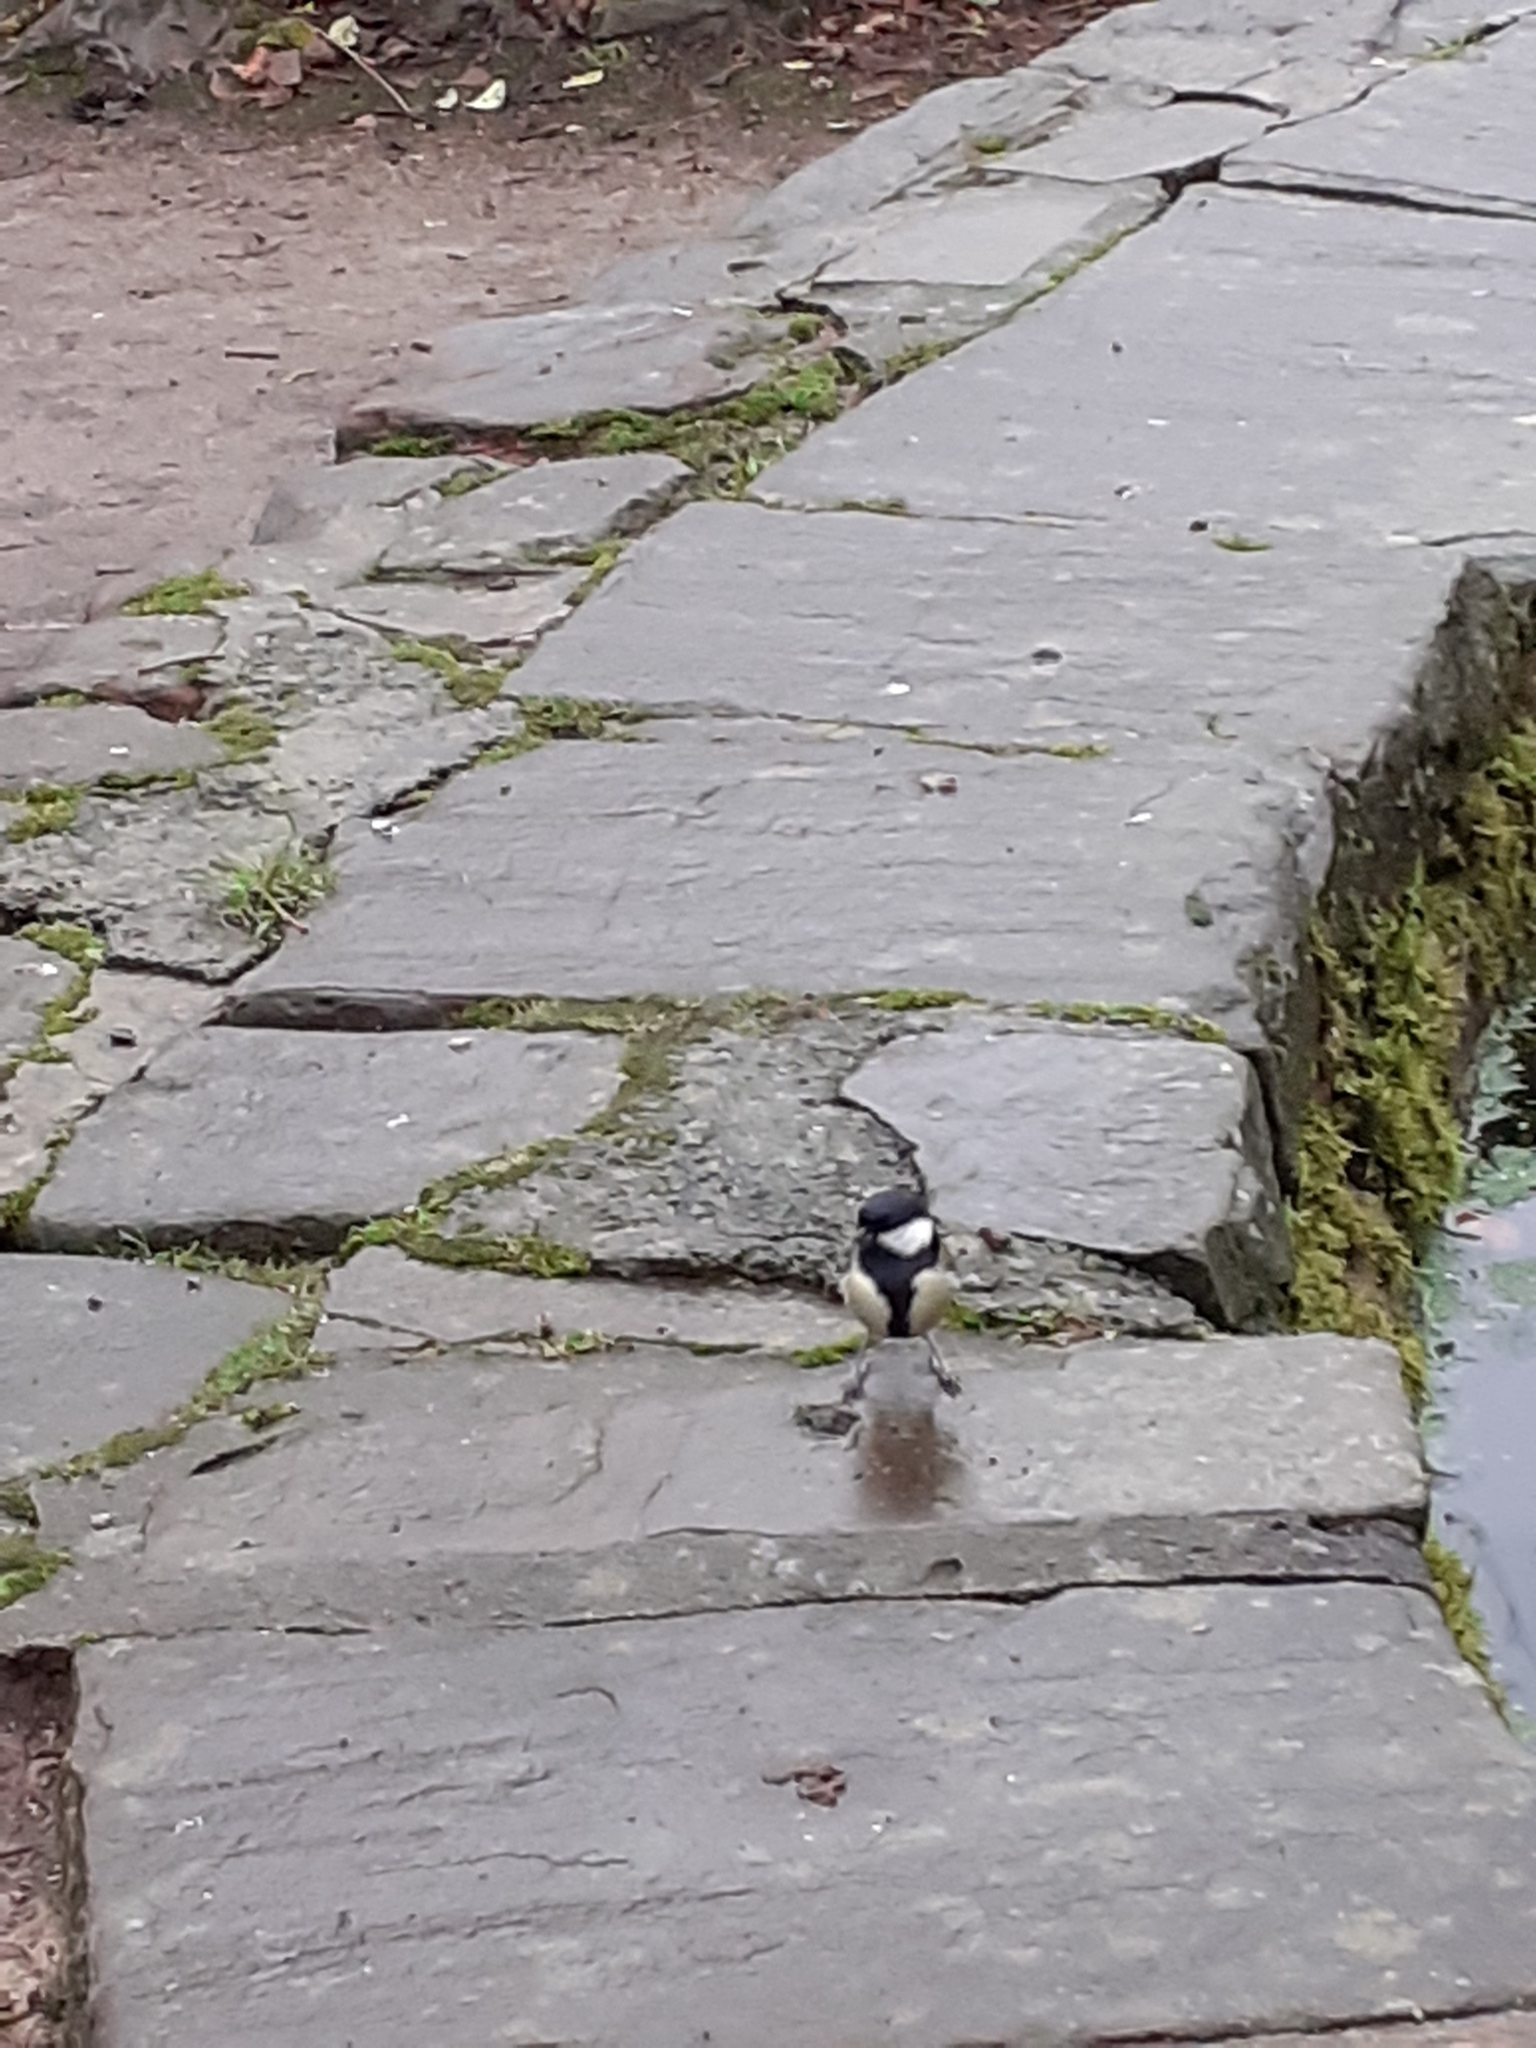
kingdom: Animalia
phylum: Chordata
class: Aves
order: Passeriformes
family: Paridae
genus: Parus
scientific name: Parus major
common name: Great tit
